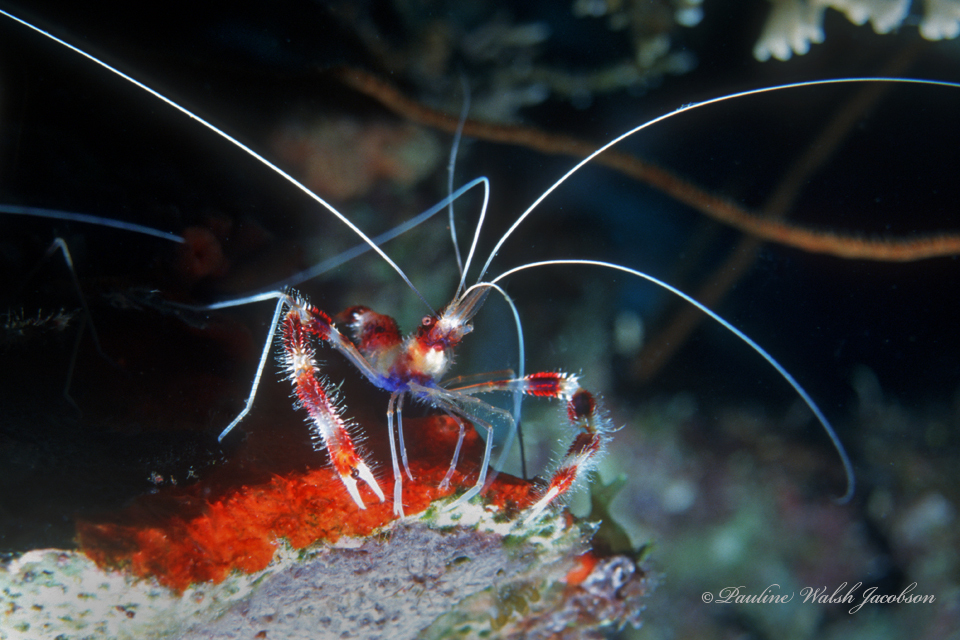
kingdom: Animalia
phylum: Arthropoda
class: Malacostraca
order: Decapoda
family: Stenopodidae
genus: Stenopus
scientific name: Stenopus hispidus
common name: Banded coral shrimp
